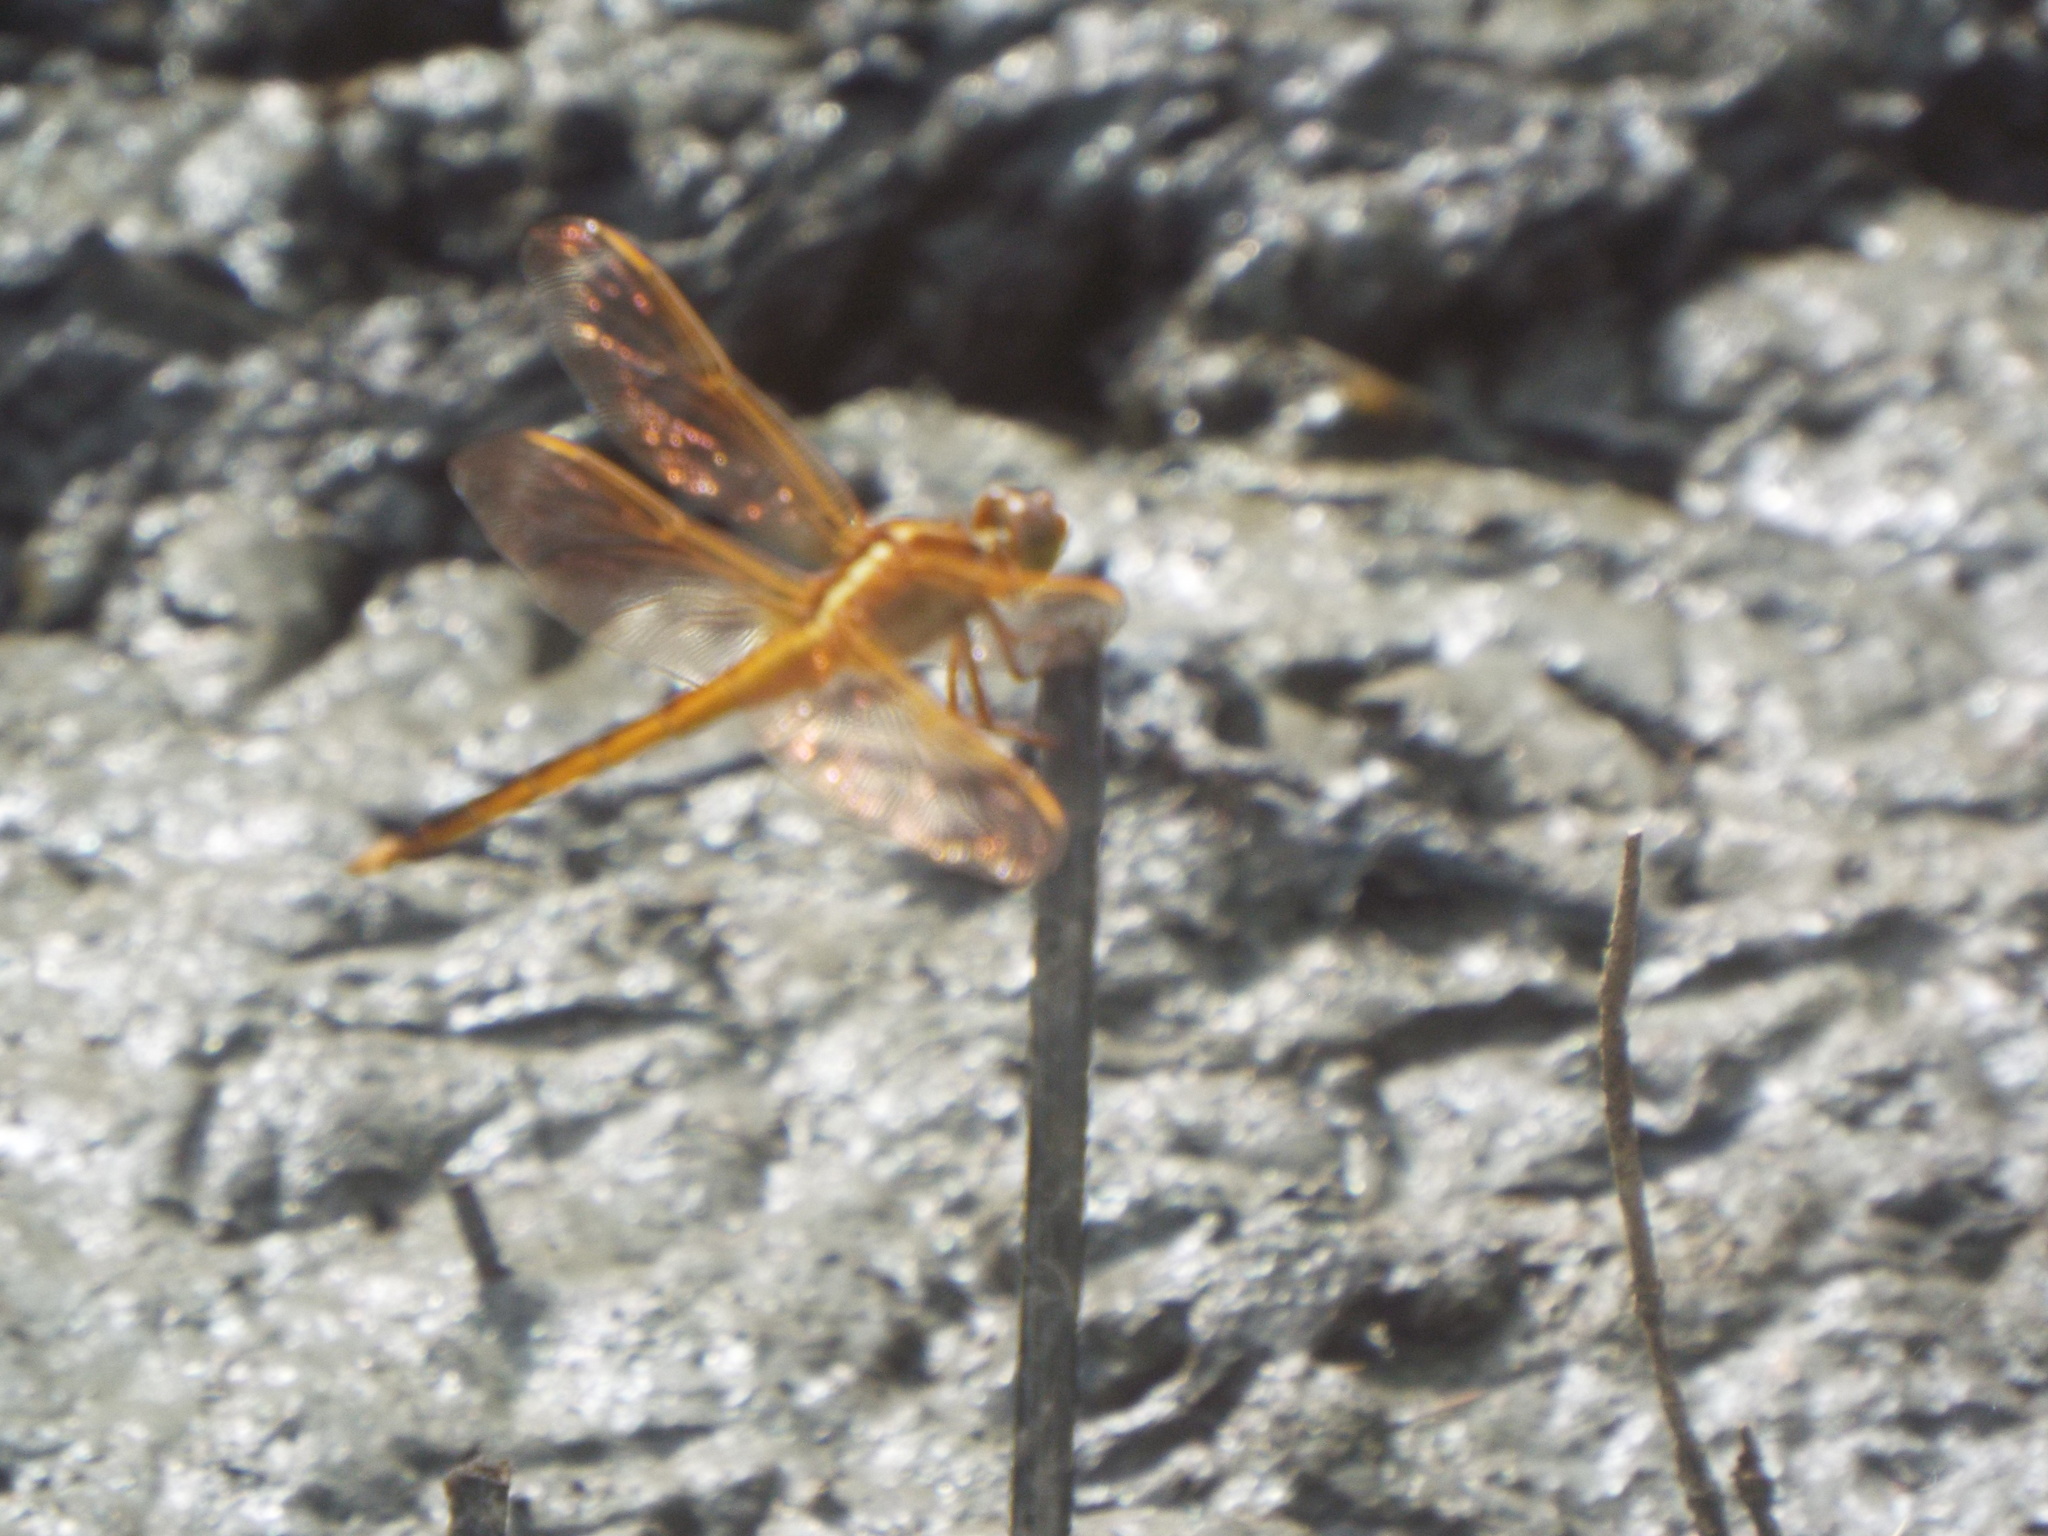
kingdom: Animalia
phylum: Arthropoda
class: Insecta
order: Odonata
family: Libellulidae
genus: Libellula
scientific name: Libellula needhami
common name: Needham's skimmer
